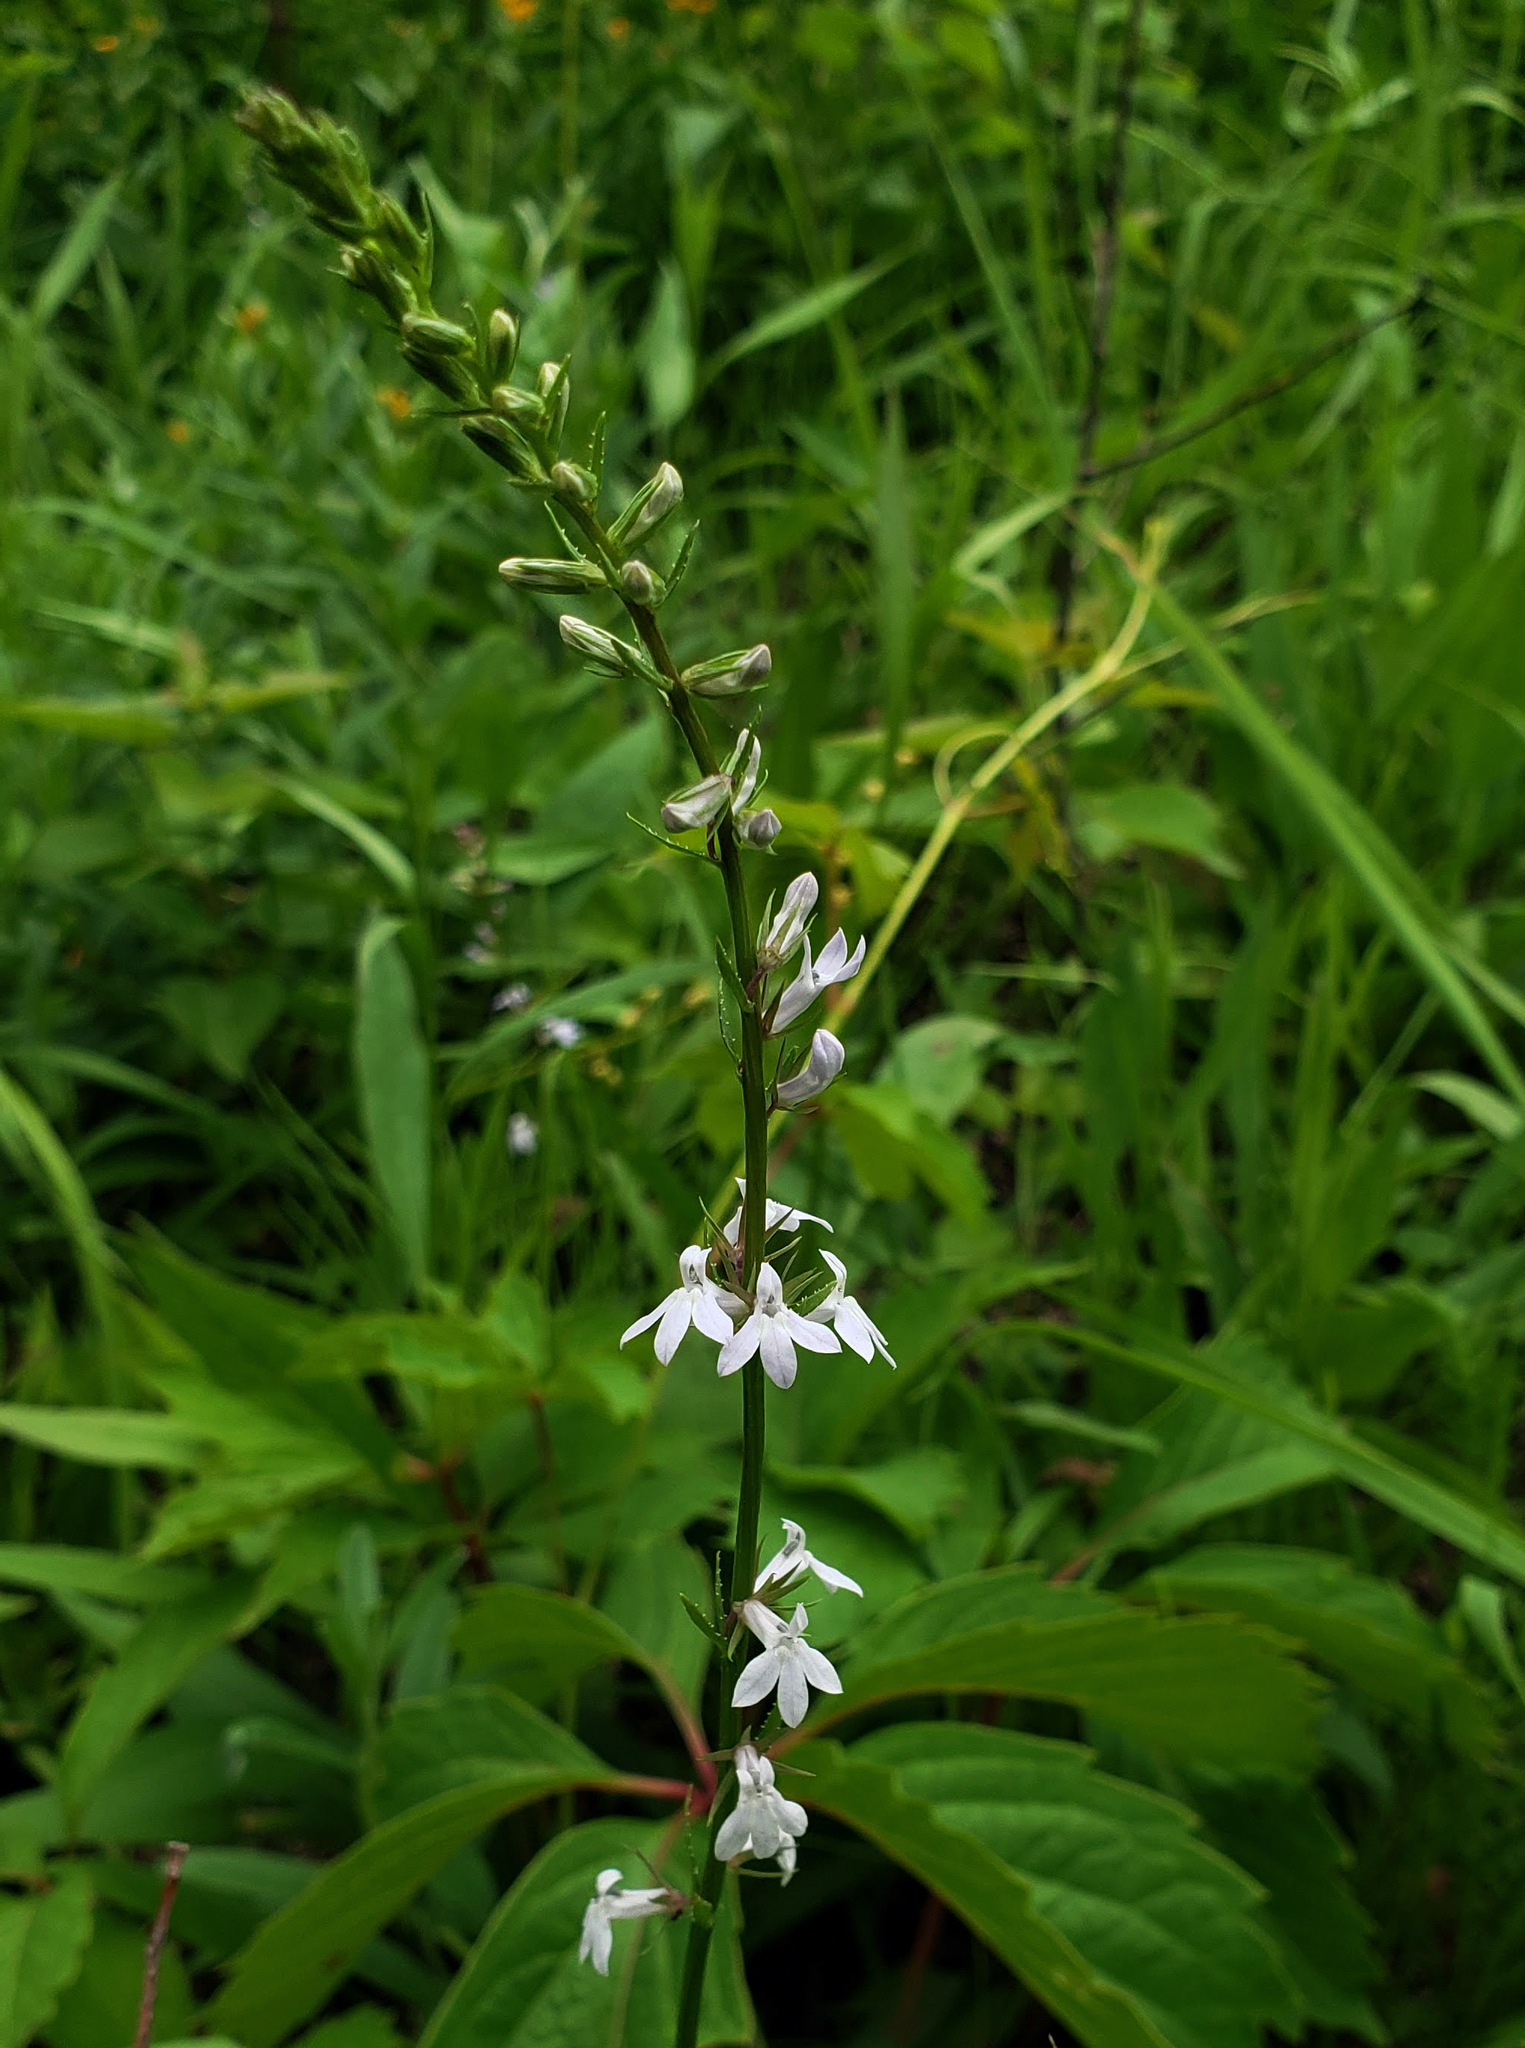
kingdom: Plantae
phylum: Tracheophyta
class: Magnoliopsida
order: Asterales
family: Campanulaceae
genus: Lobelia
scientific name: Lobelia spicata
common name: Pale-spike lobelia
